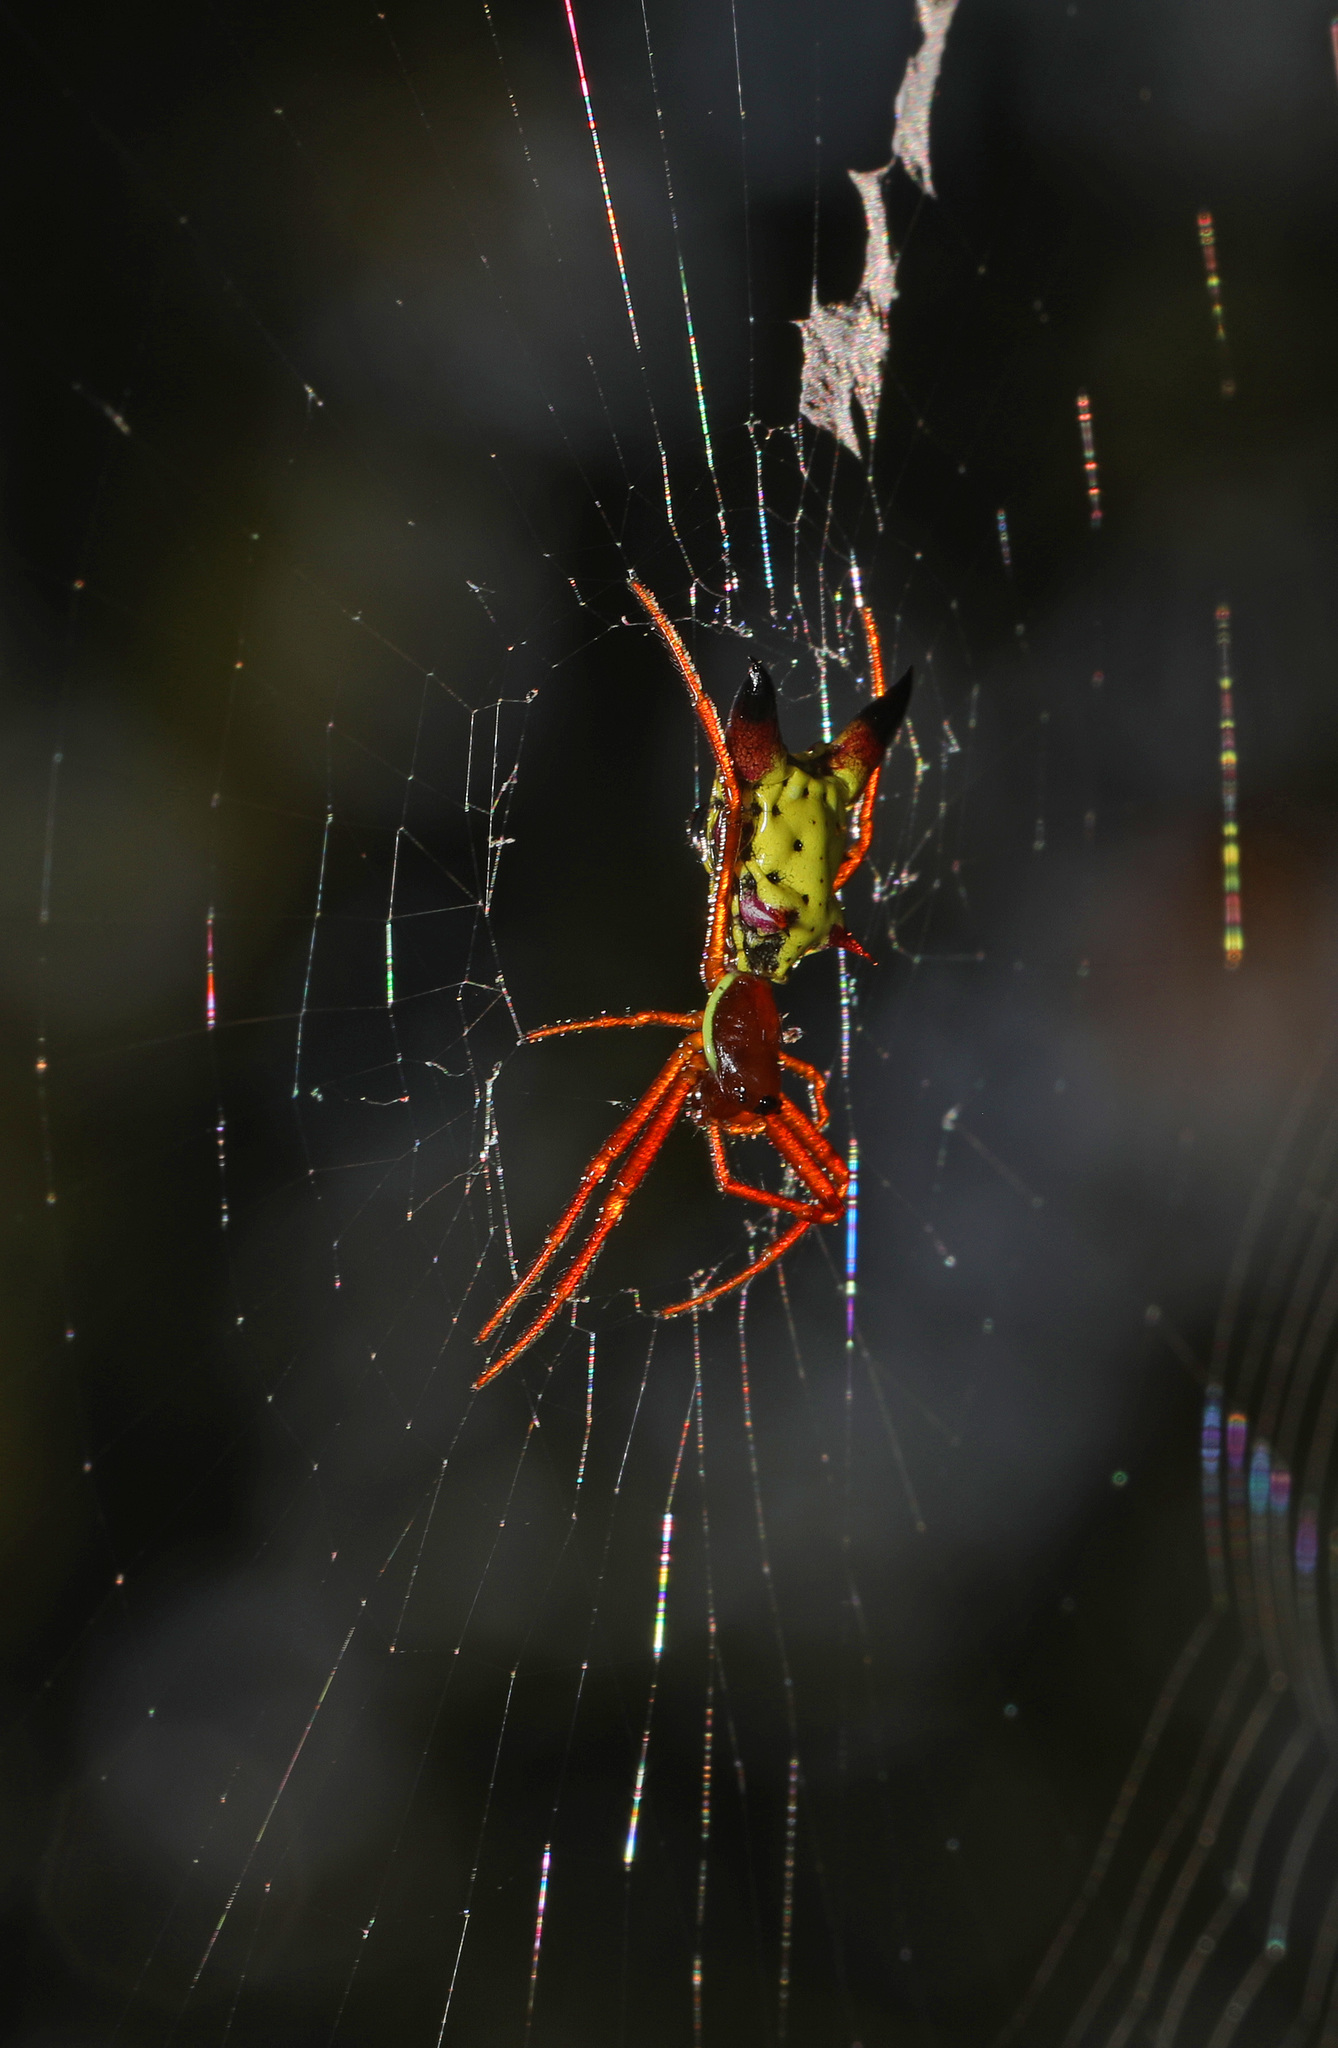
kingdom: Animalia
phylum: Arthropoda
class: Arachnida
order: Araneae
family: Araneidae
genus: Micrathena
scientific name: Micrathena sagittata
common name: Orb weavers
